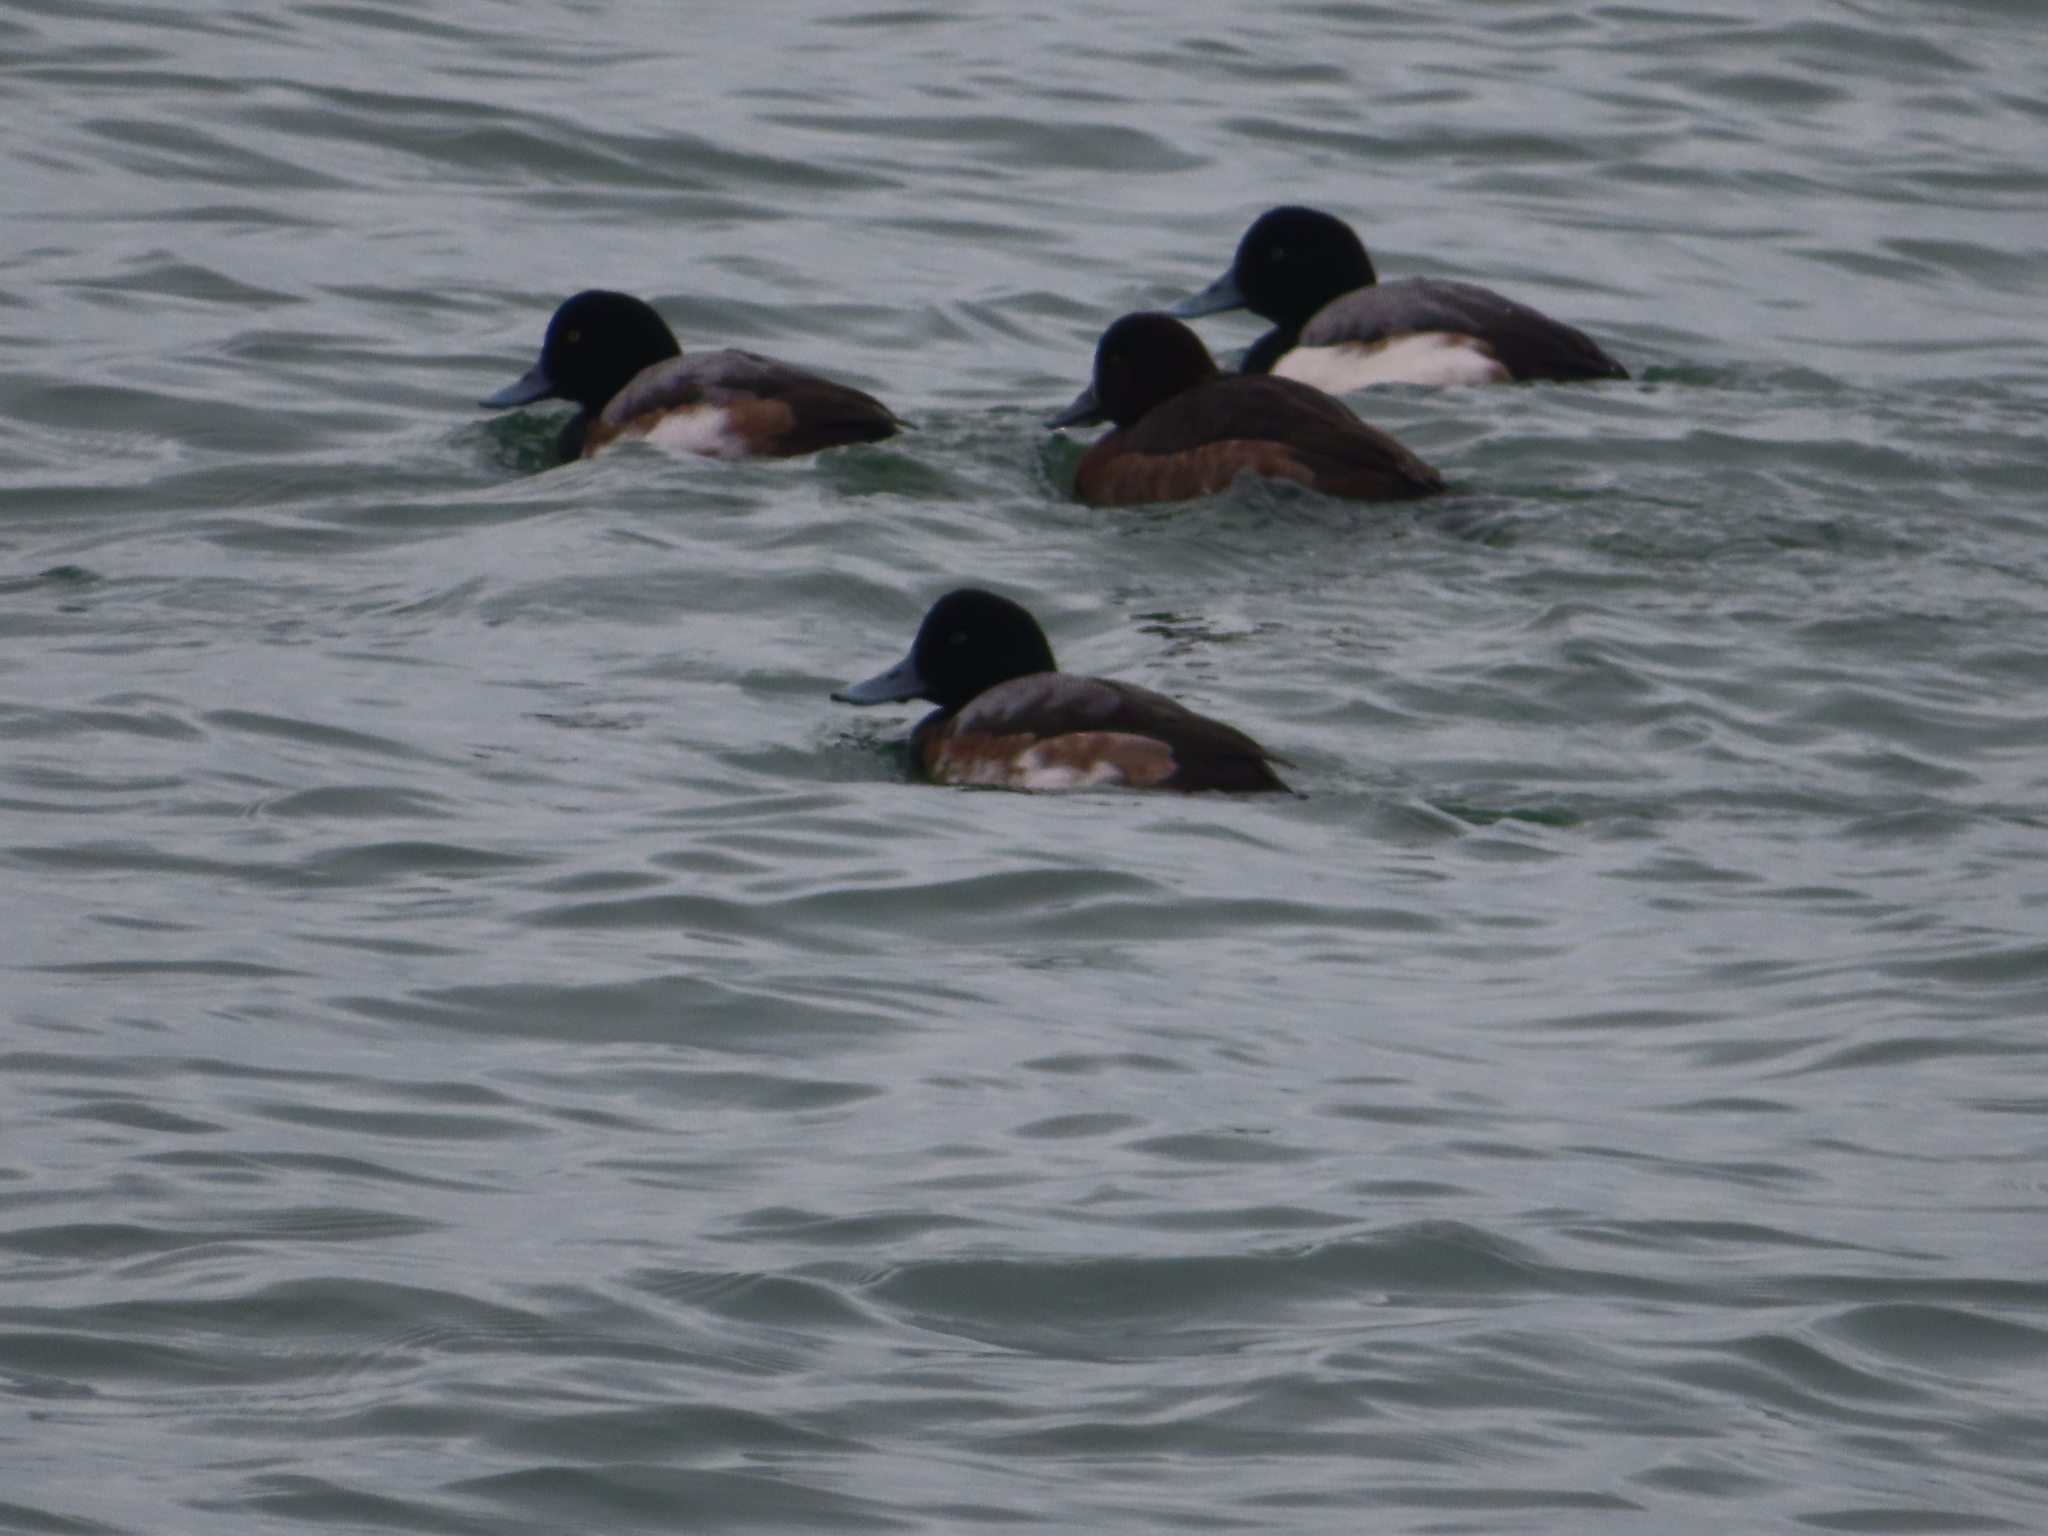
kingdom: Animalia
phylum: Chordata
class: Aves
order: Anseriformes
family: Anatidae
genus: Aythya
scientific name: Aythya marila
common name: Greater scaup
